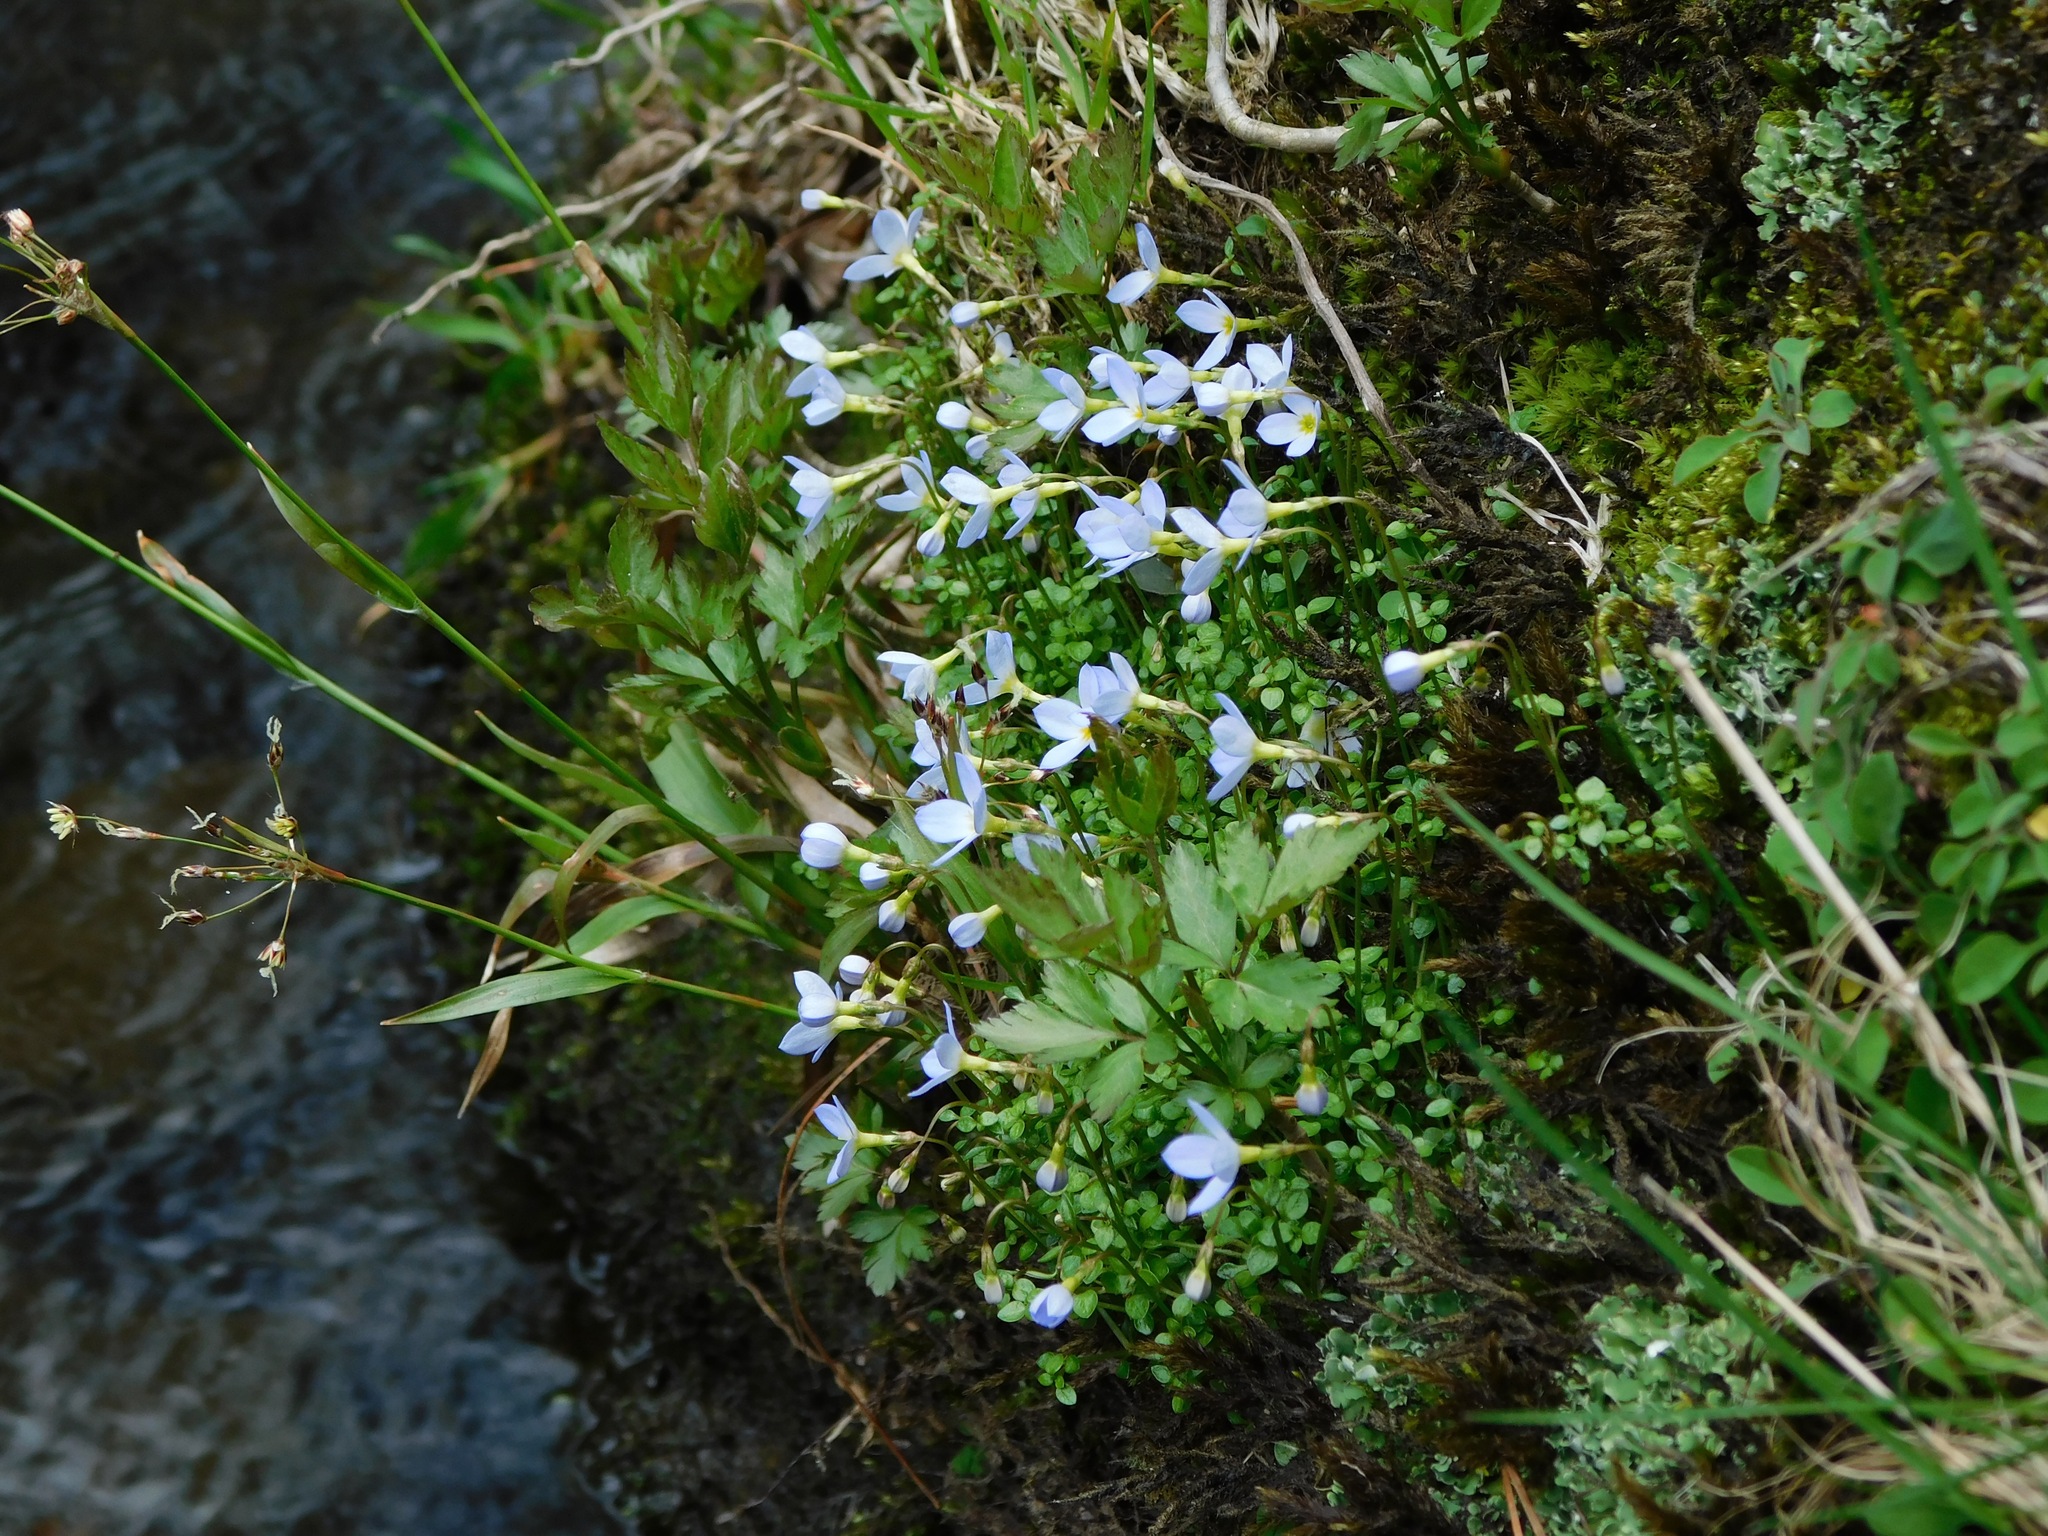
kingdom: Plantae
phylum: Tracheophyta
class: Magnoliopsida
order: Gentianales
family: Rubiaceae
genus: Houstonia
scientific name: Houstonia serpyllifolia
